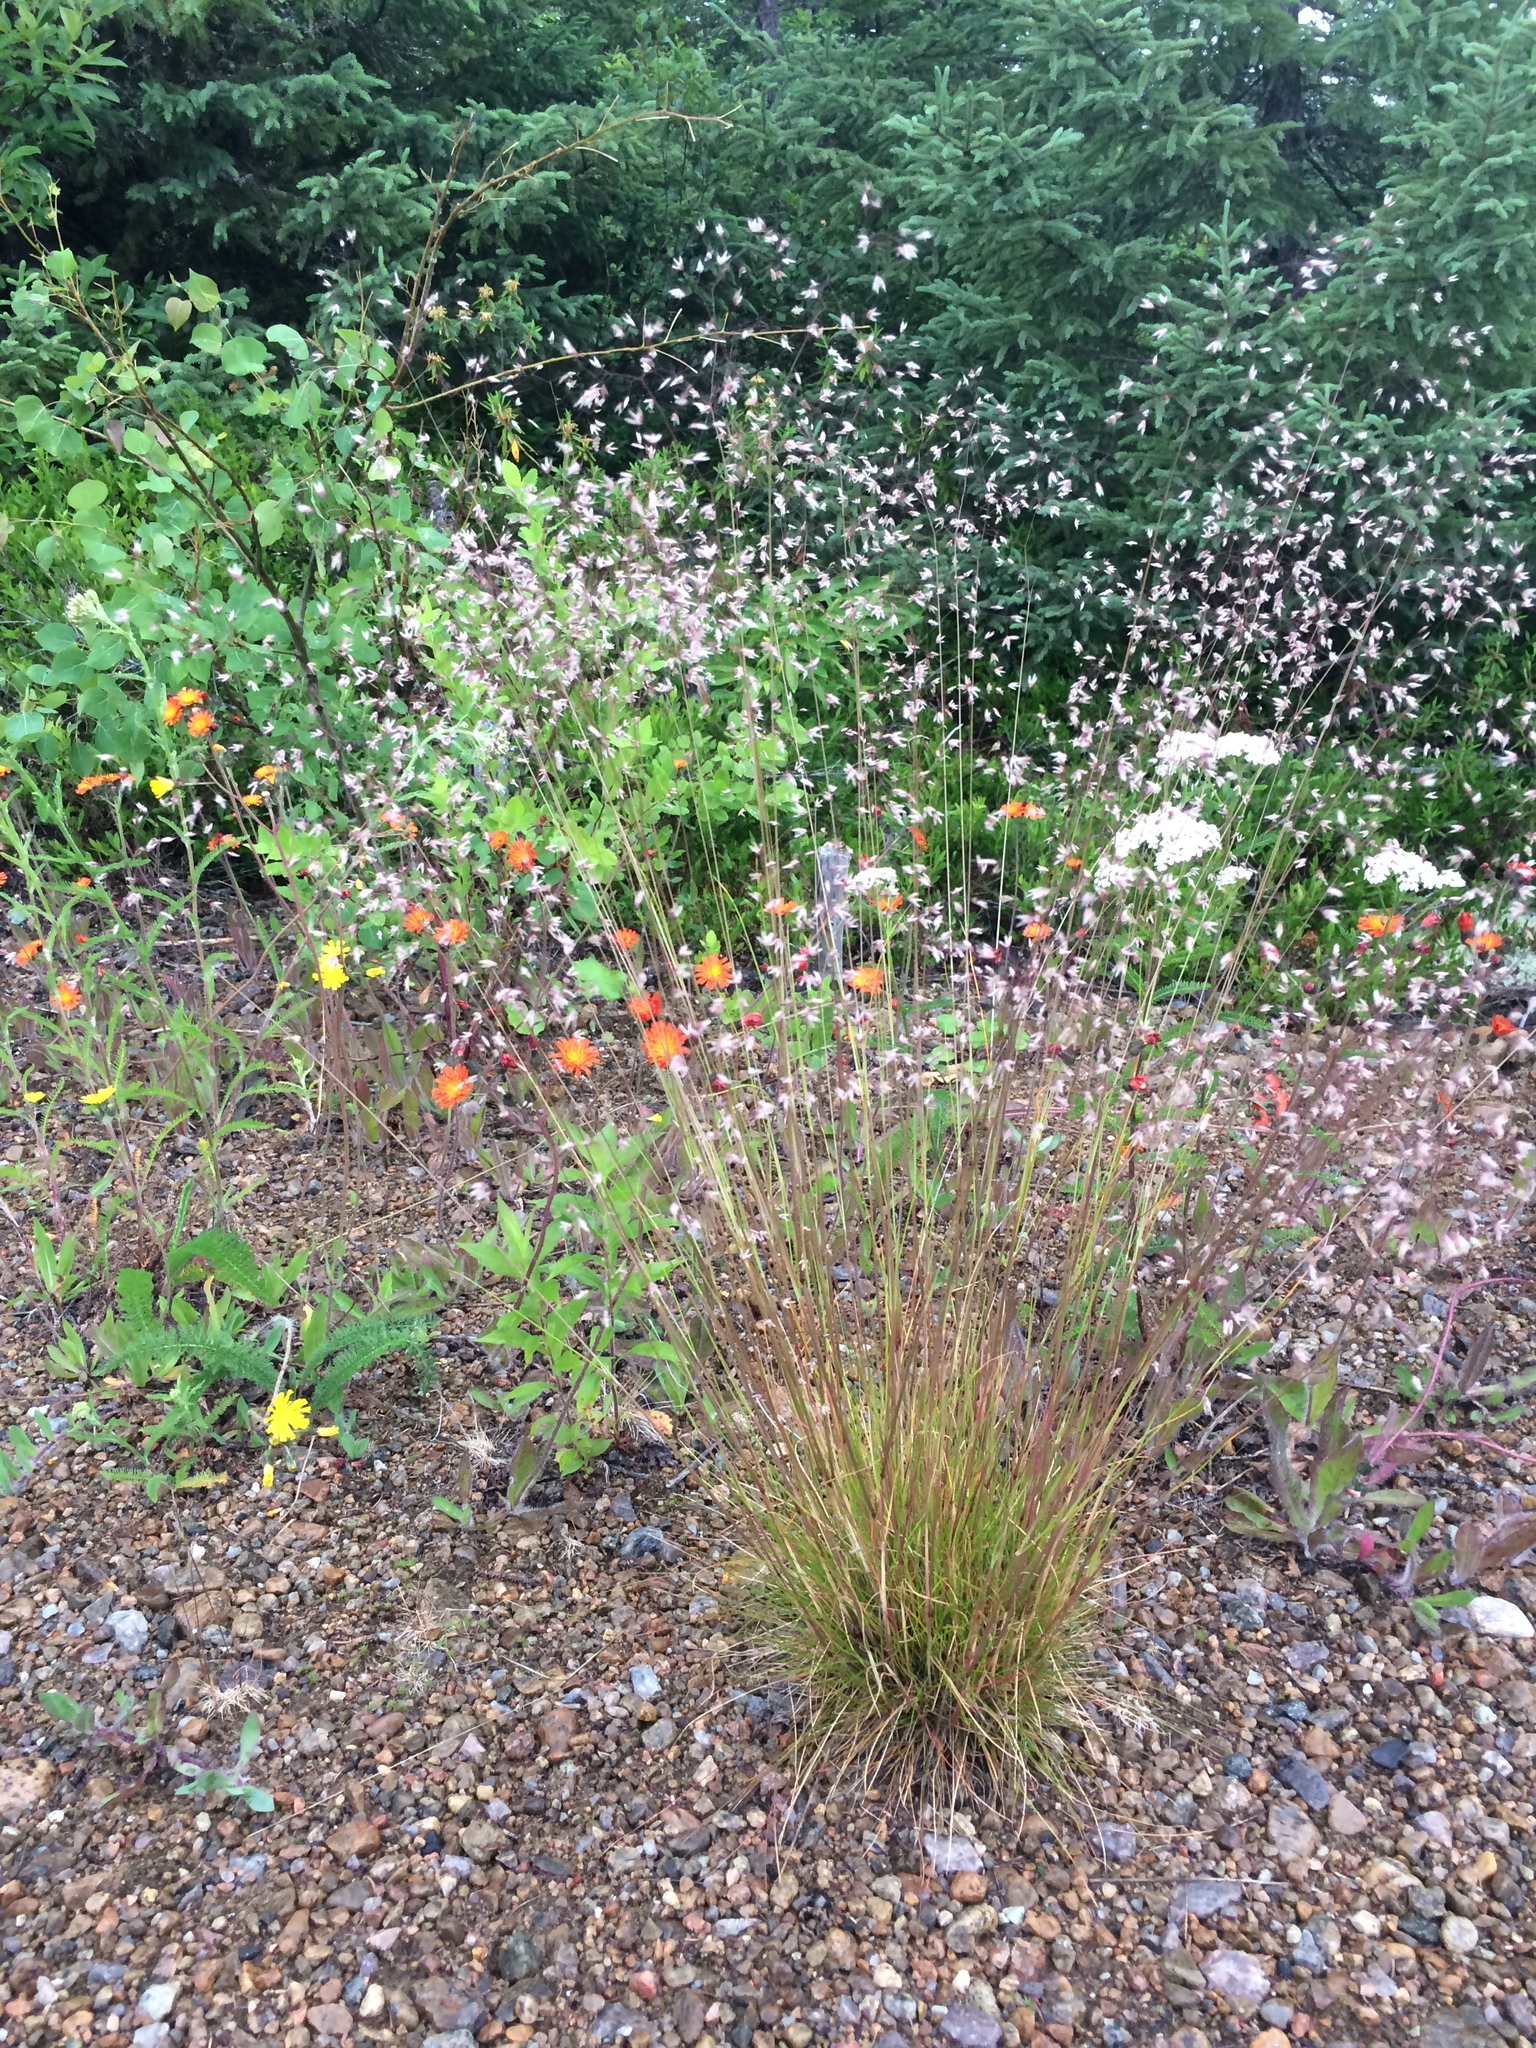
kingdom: Plantae
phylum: Tracheophyta
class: Liliopsida
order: Poales
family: Poaceae
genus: Avenella
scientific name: Avenella flexuosa
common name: Wavy hairgrass
